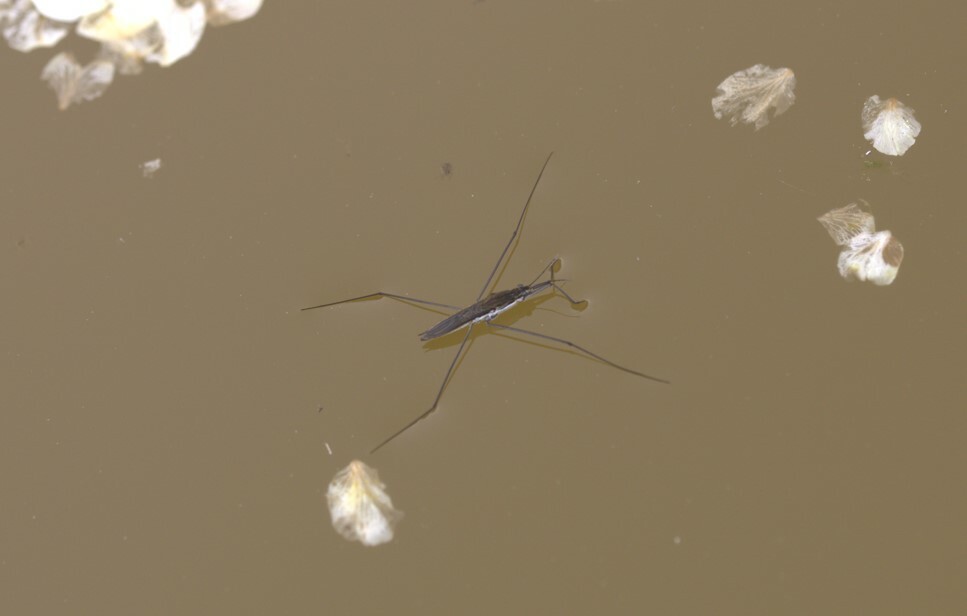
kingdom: Animalia
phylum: Arthropoda
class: Insecta
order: Hemiptera
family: Gerridae
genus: Aquarius
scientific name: Aquarius paludum
